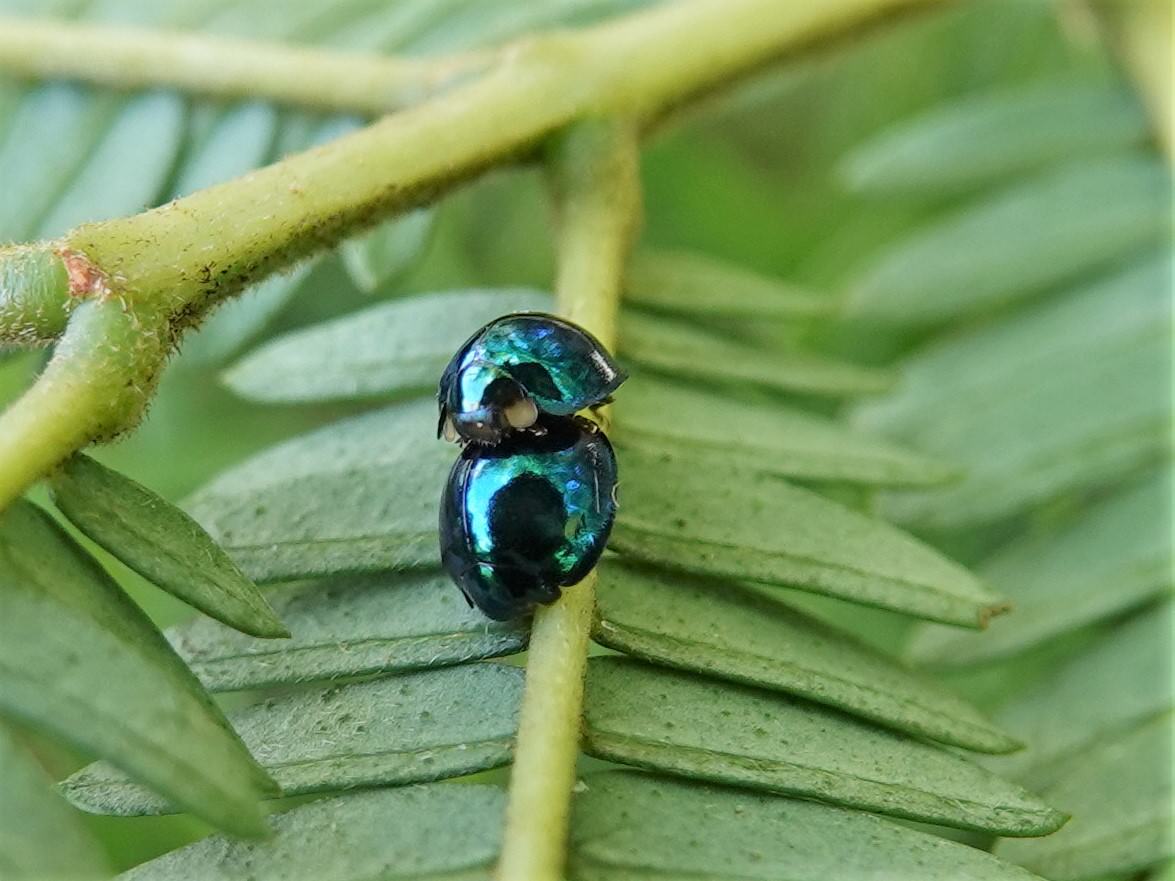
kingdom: Animalia
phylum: Arthropoda
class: Insecta
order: Coleoptera
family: Coccinellidae
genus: Halmus
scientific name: Halmus chalybeus
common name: Steel blue ladybird beetle
